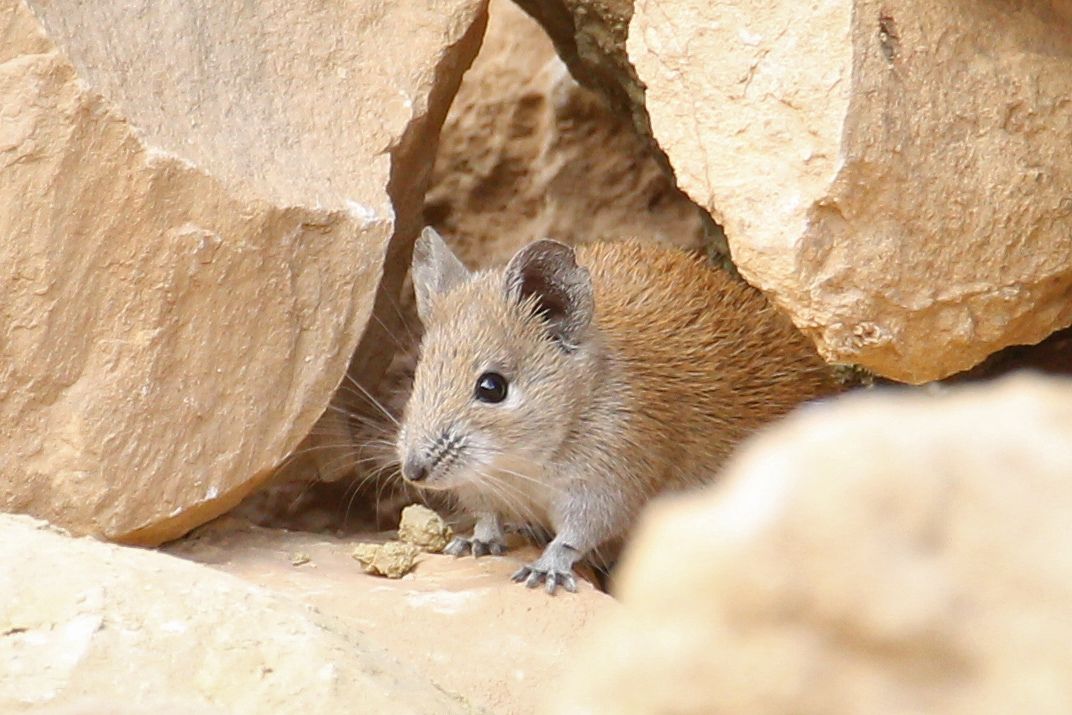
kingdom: Animalia
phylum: Chordata
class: Mammalia
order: Rodentia
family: Muridae
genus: Acomys
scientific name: Acomys russatus
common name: Golden spiny mouse
